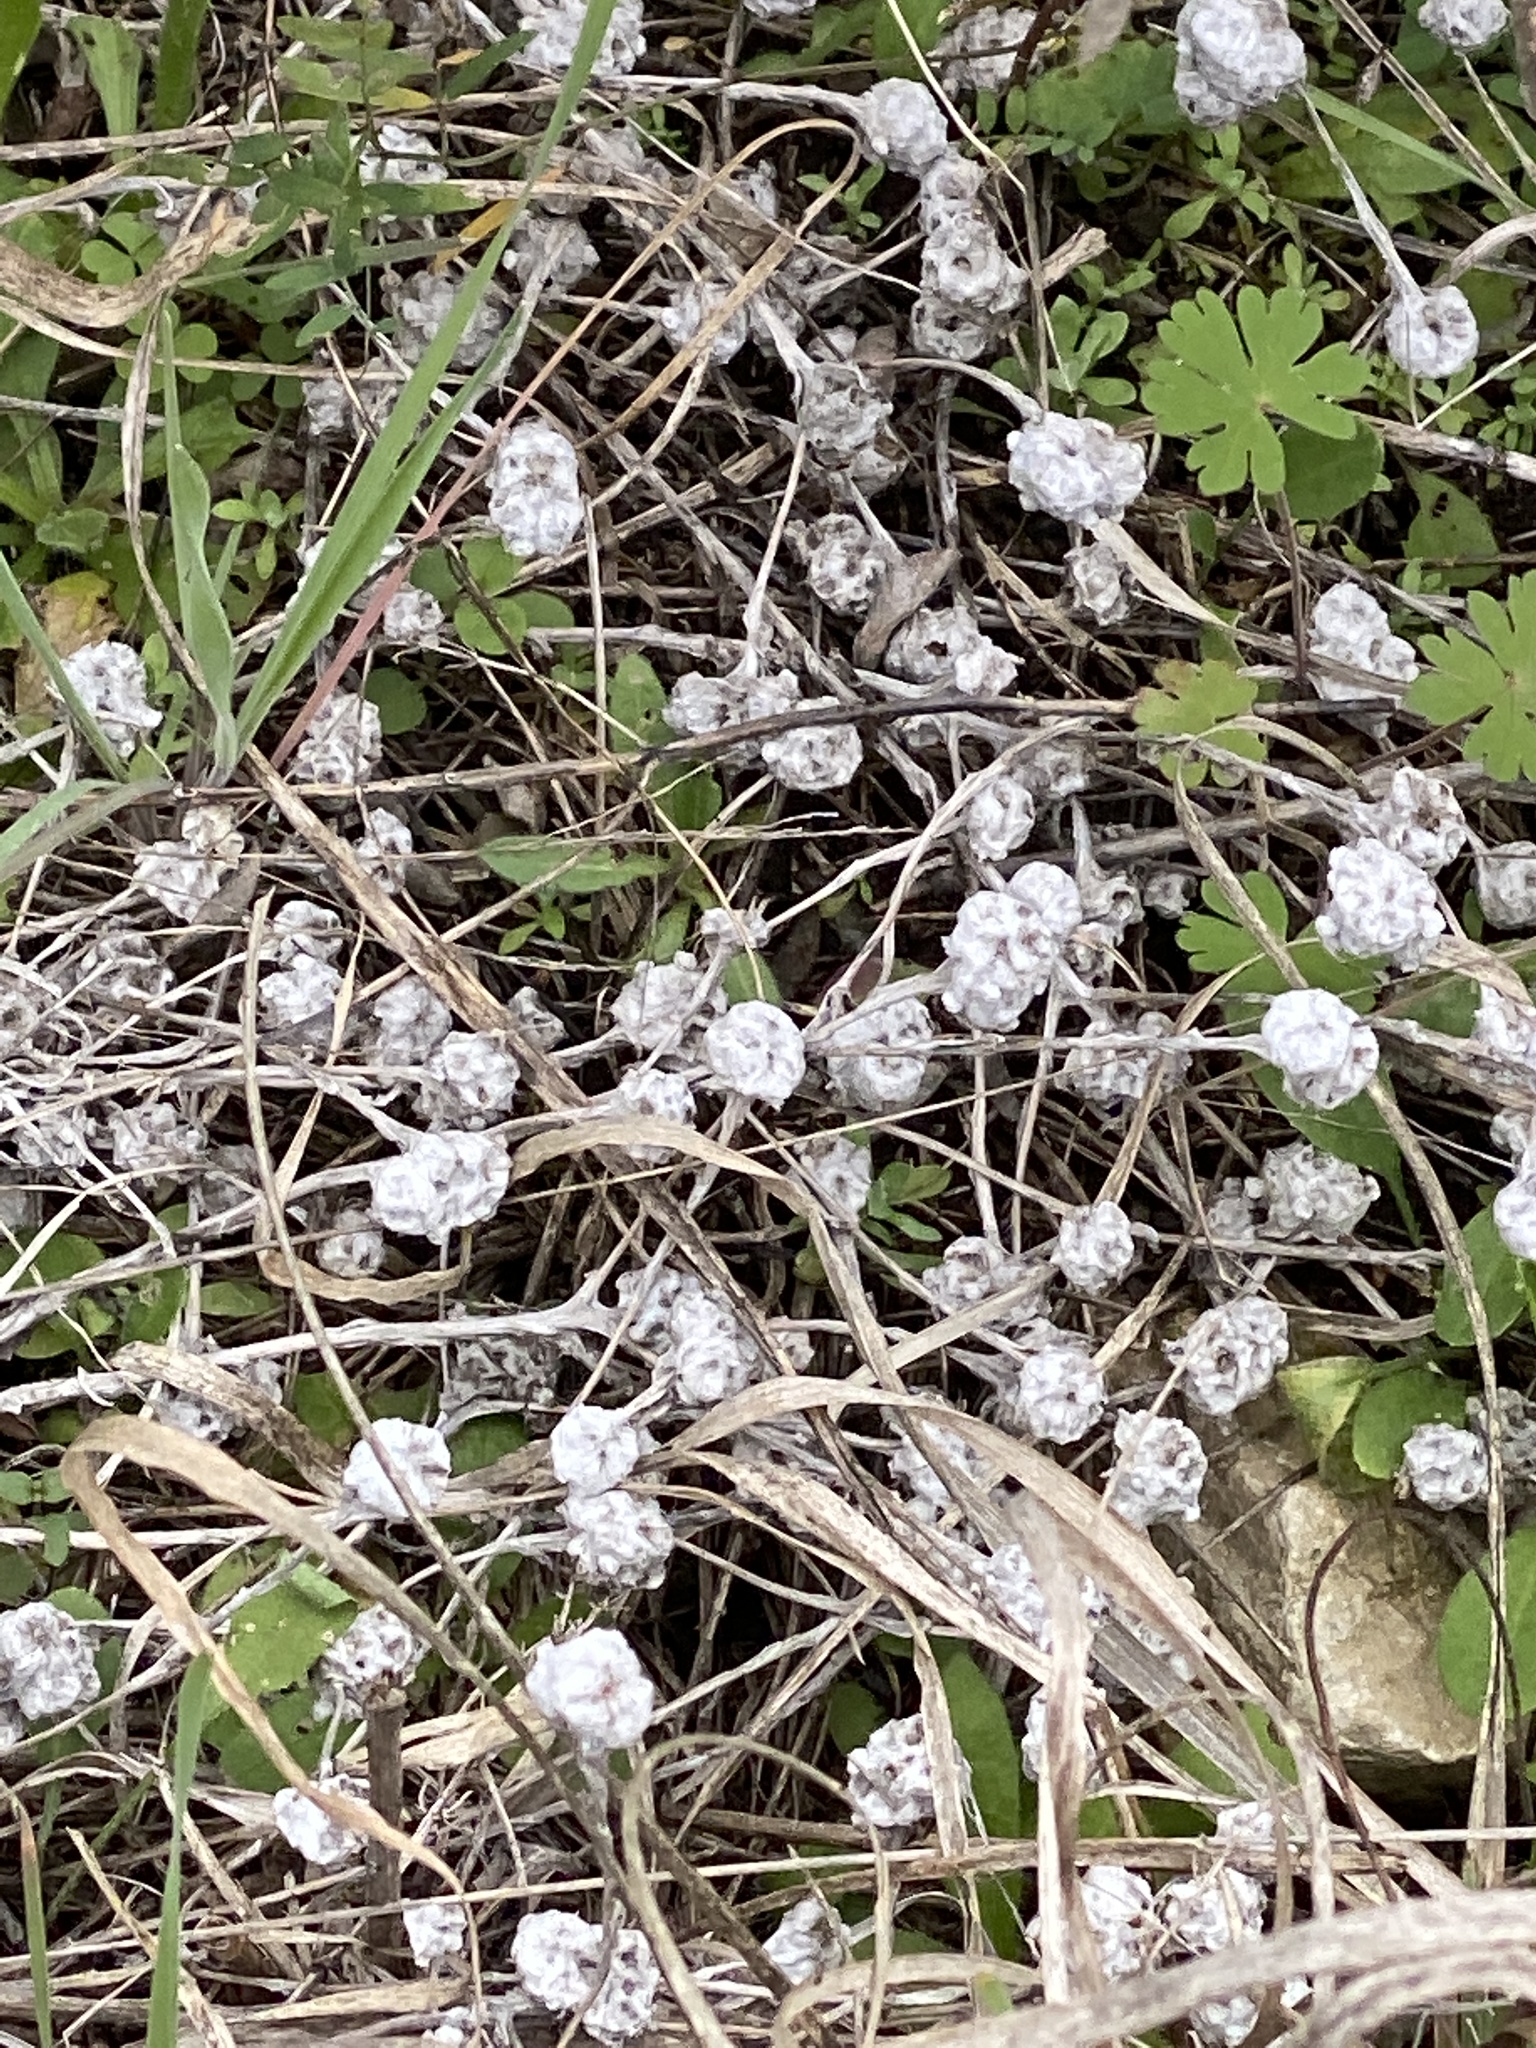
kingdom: Plantae
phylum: Tracheophyta
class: Magnoliopsida
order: Asterales
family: Asteraceae
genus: Diaperia
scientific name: Diaperia verna
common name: Many-stem rabbit-tobacco
